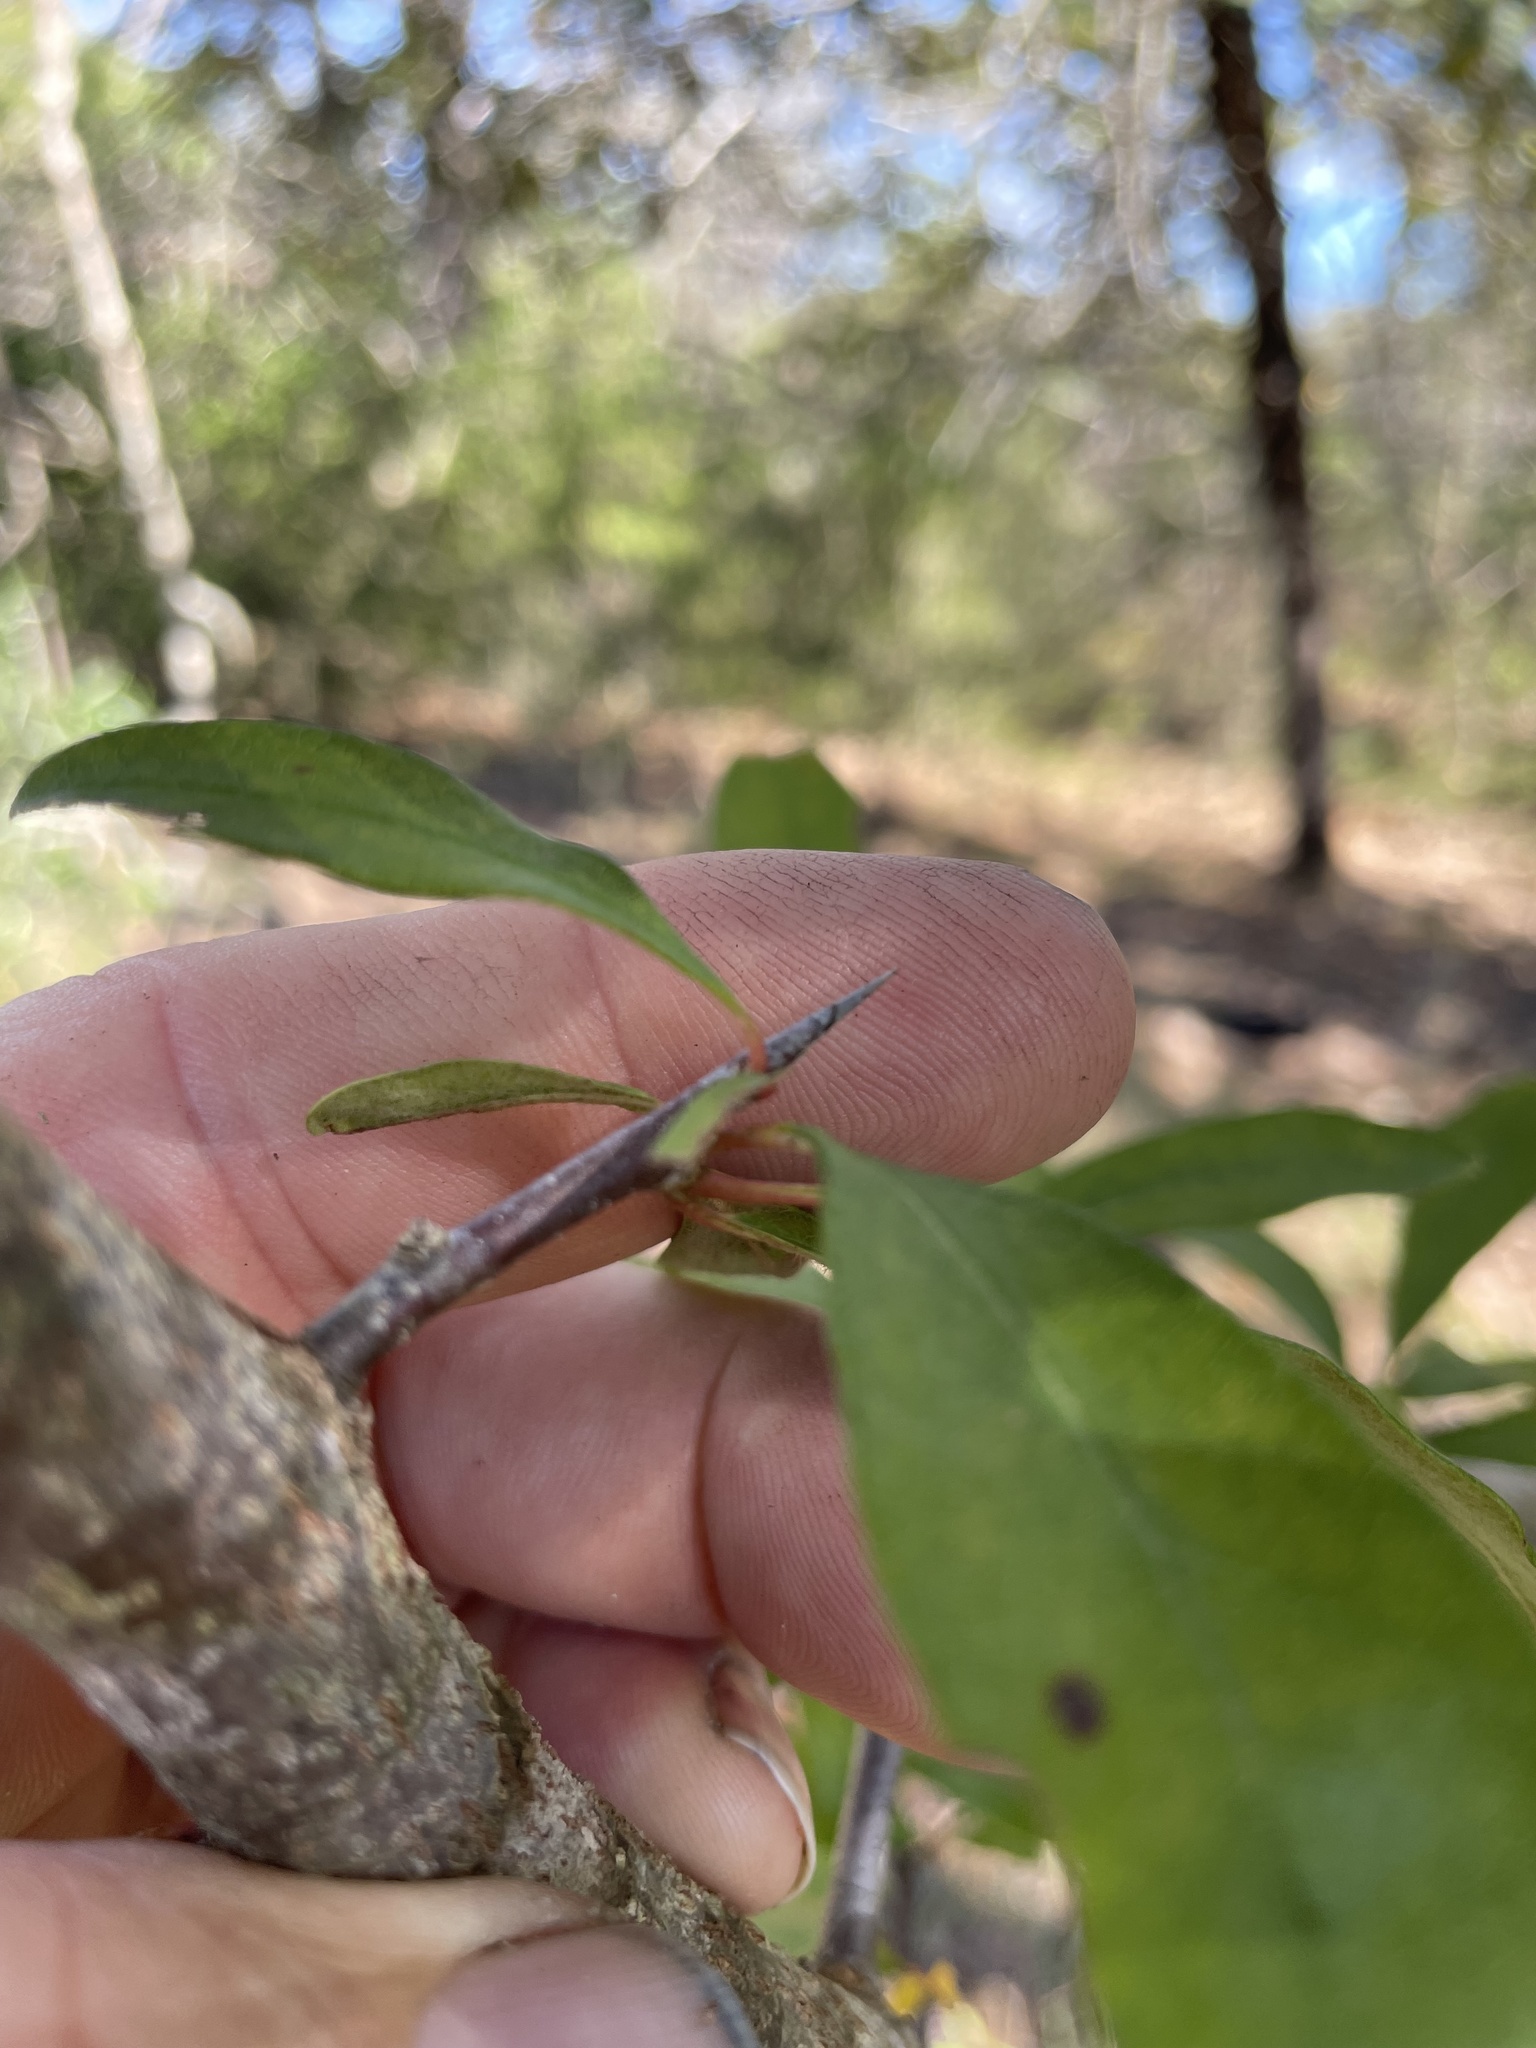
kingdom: Plantae
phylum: Tracheophyta
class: Magnoliopsida
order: Ericales
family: Sapotaceae
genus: Sideroxylon
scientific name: Sideroxylon lanuginosum
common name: Chittamwood
